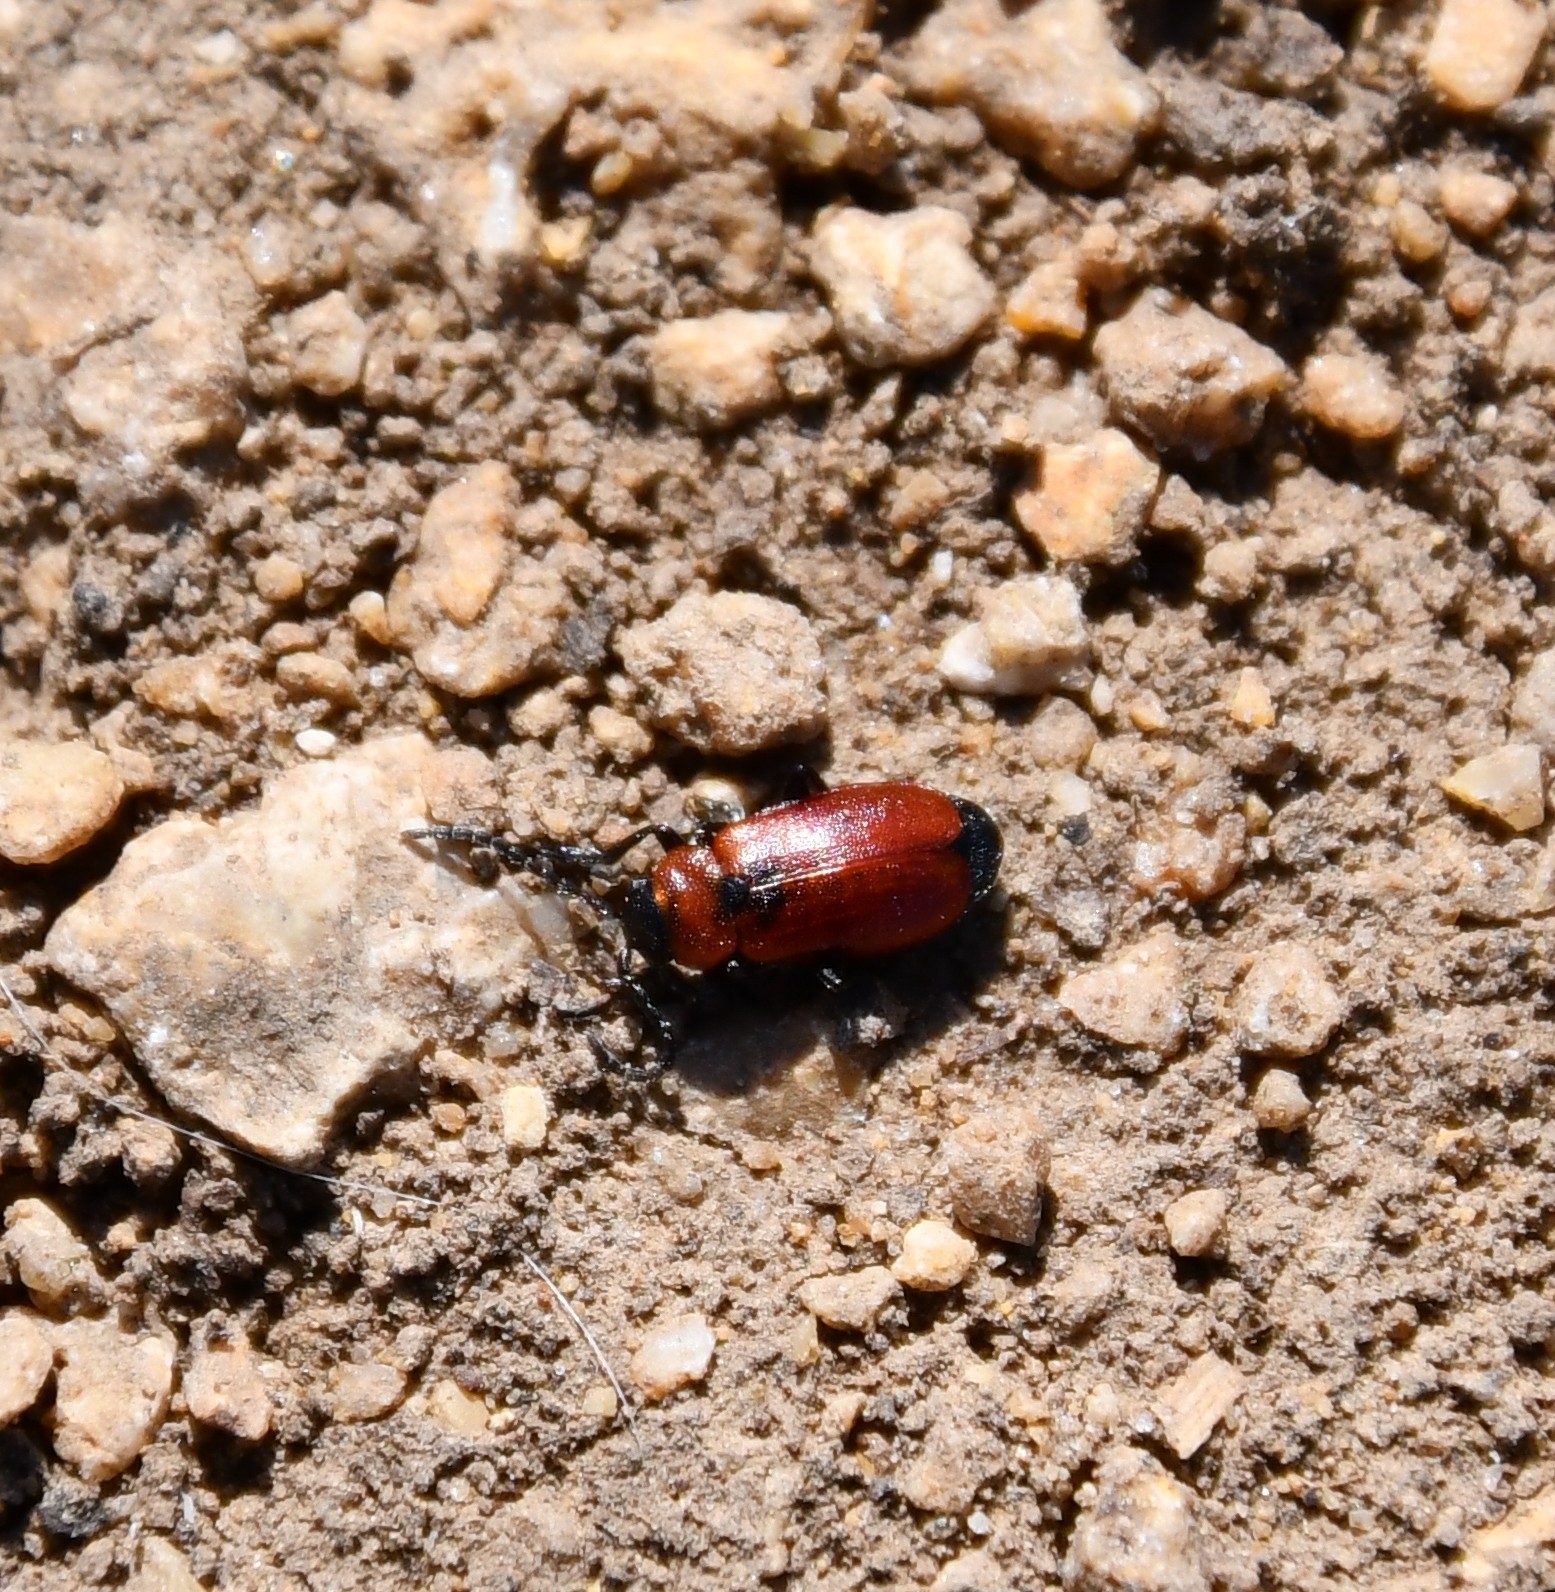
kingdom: Animalia
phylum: Arthropoda
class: Insecta
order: Coleoptera
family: Chrysomelidae
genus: Galeruca
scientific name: Galeruca melanocephala
